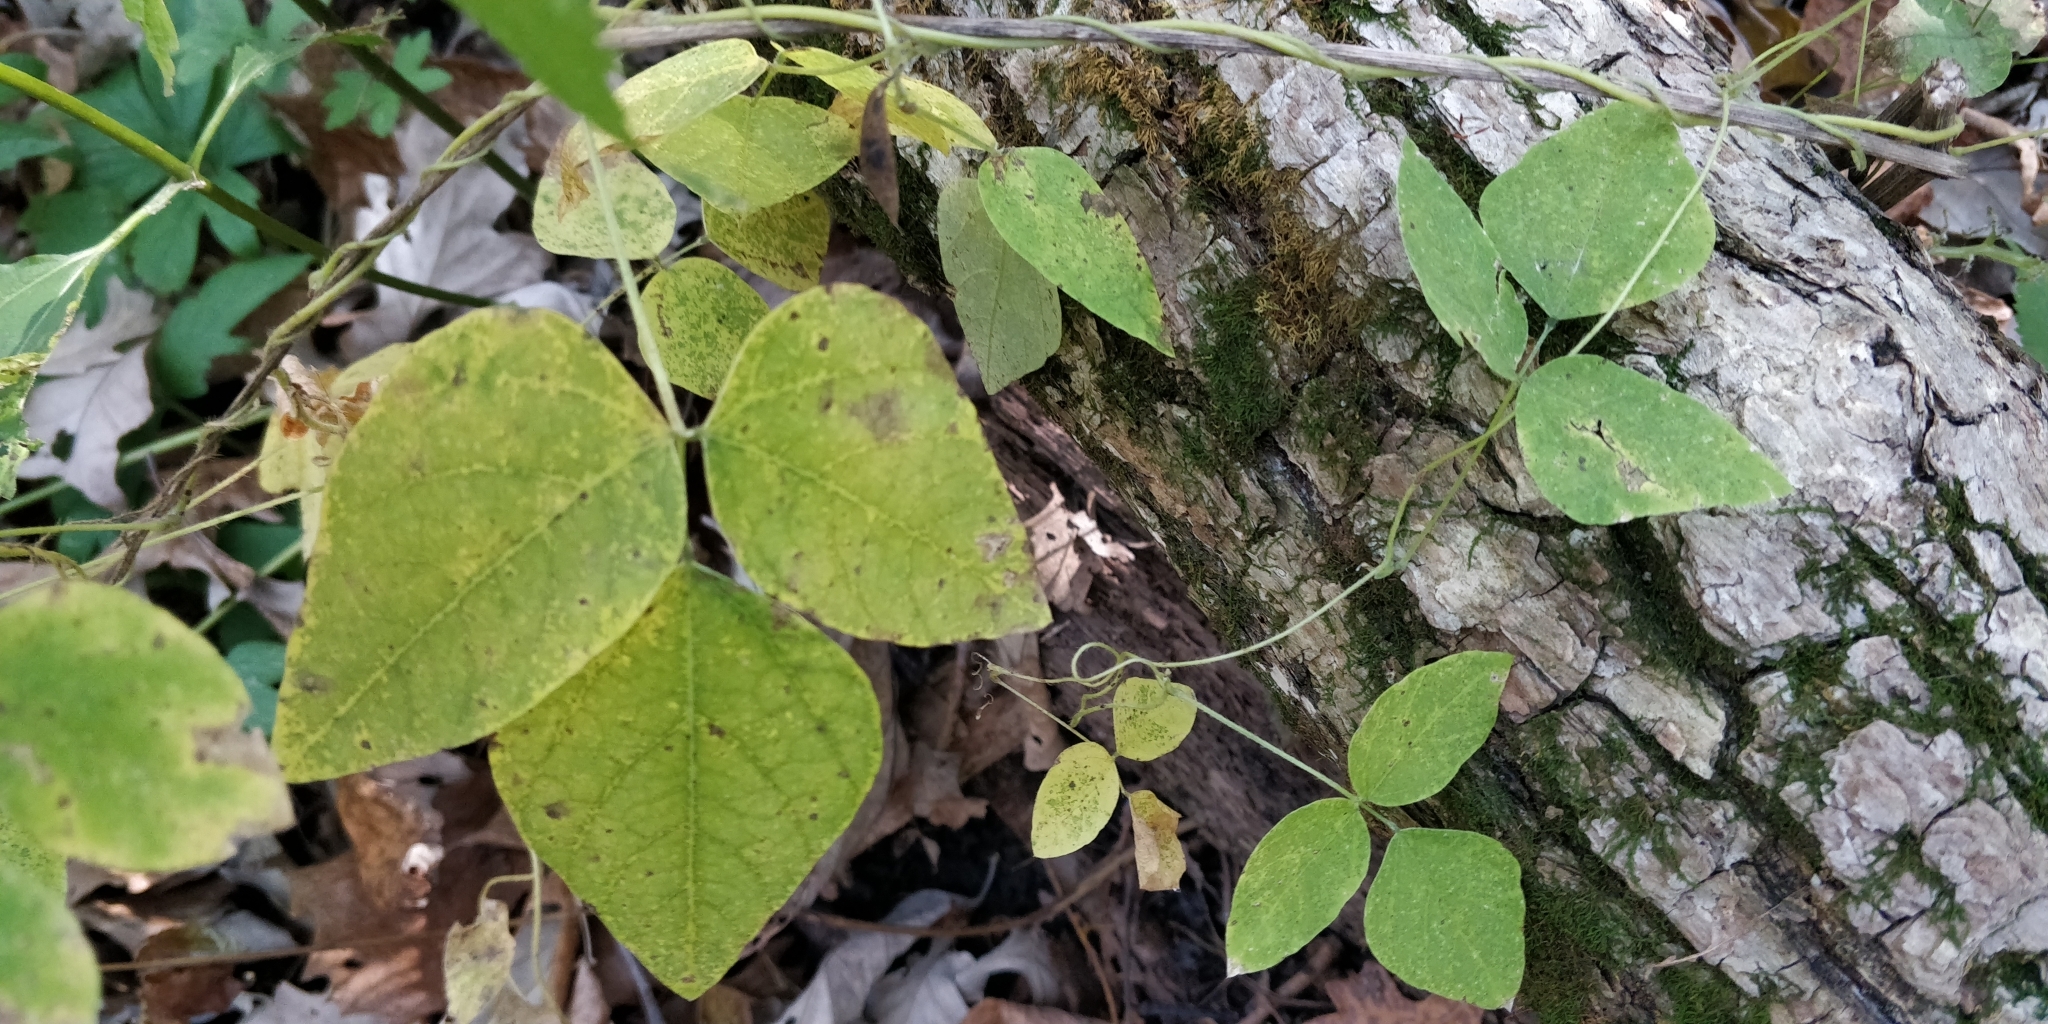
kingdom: Plantae
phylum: Tracheophyta
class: Magnoliopsida
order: Fabales
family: Fabaceae
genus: Amphicarpaea
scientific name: Amphicarpaea bracteata
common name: American hog peanut
